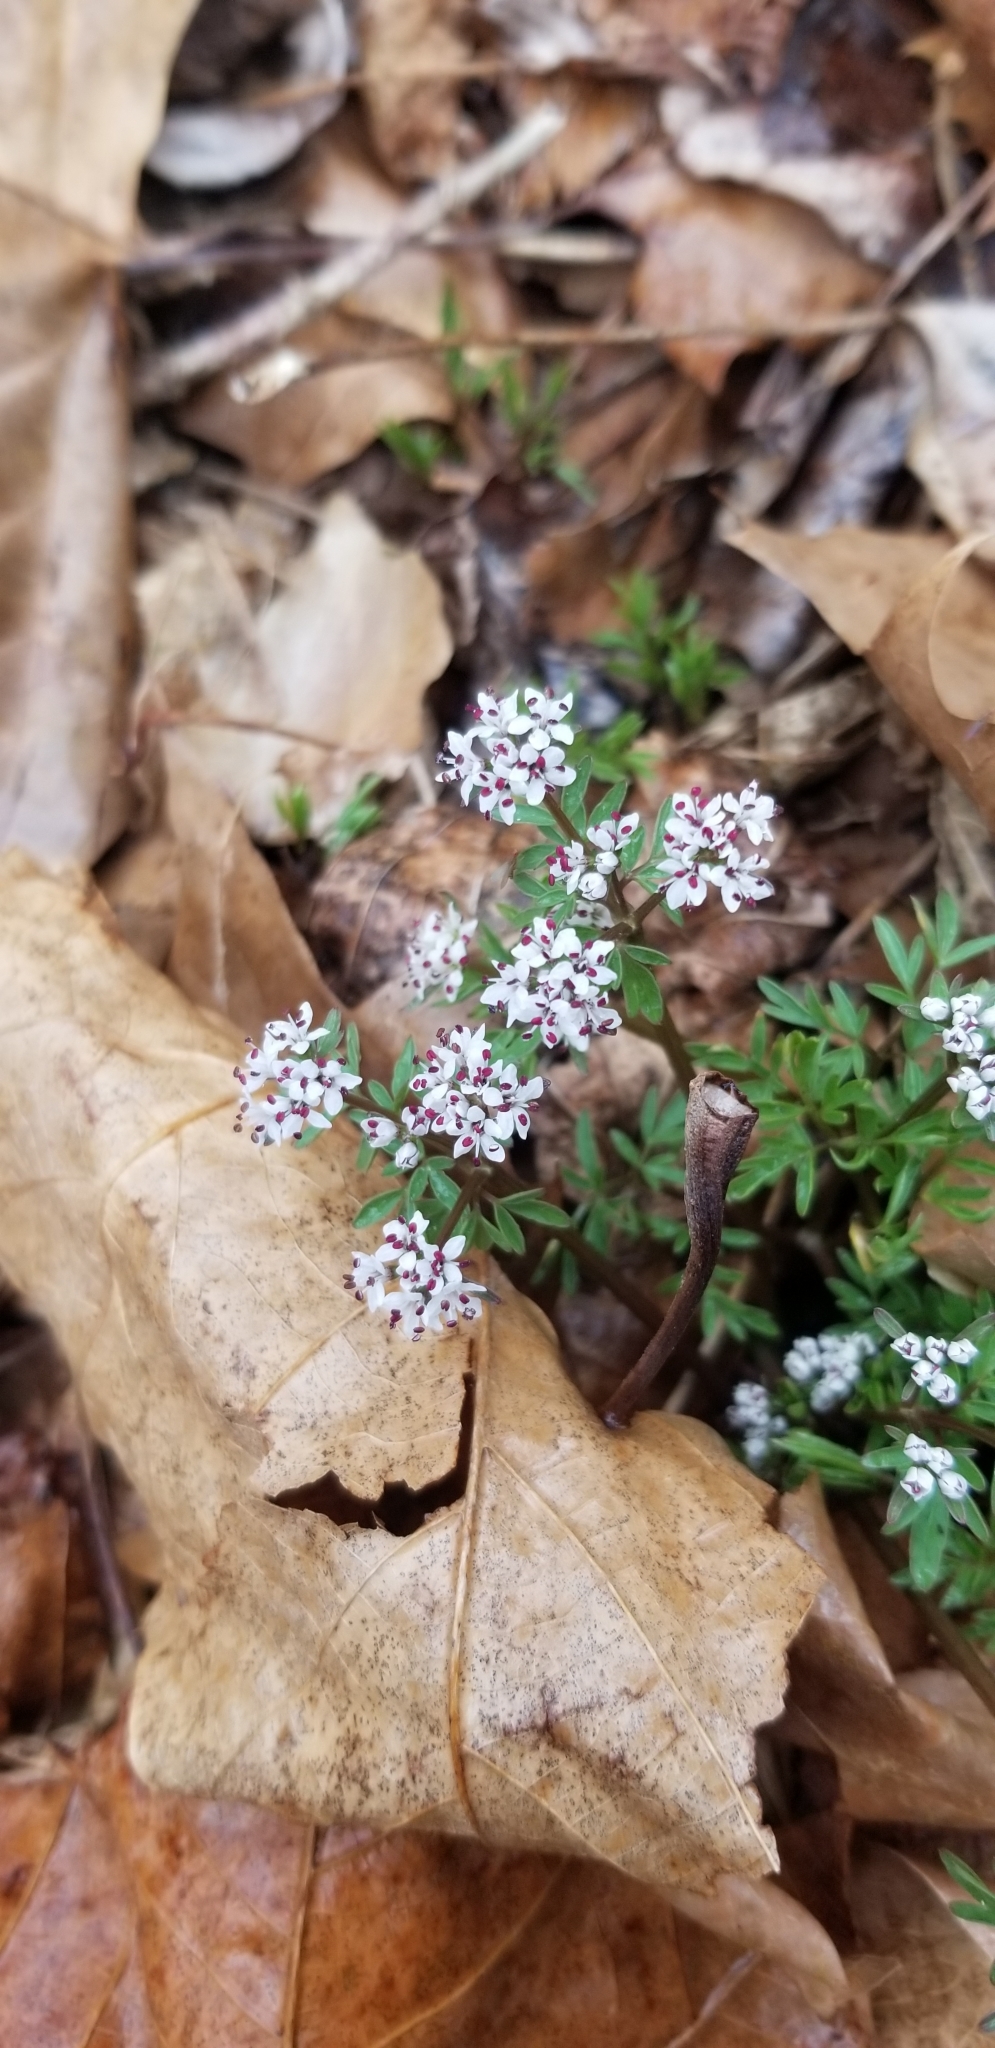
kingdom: Plantae
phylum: Tracheophyta
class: Magnoliopsida
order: Apiales
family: Apiaceae
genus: Erigenia
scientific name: Erigenia bulbosa
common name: Pepper-and-salt
